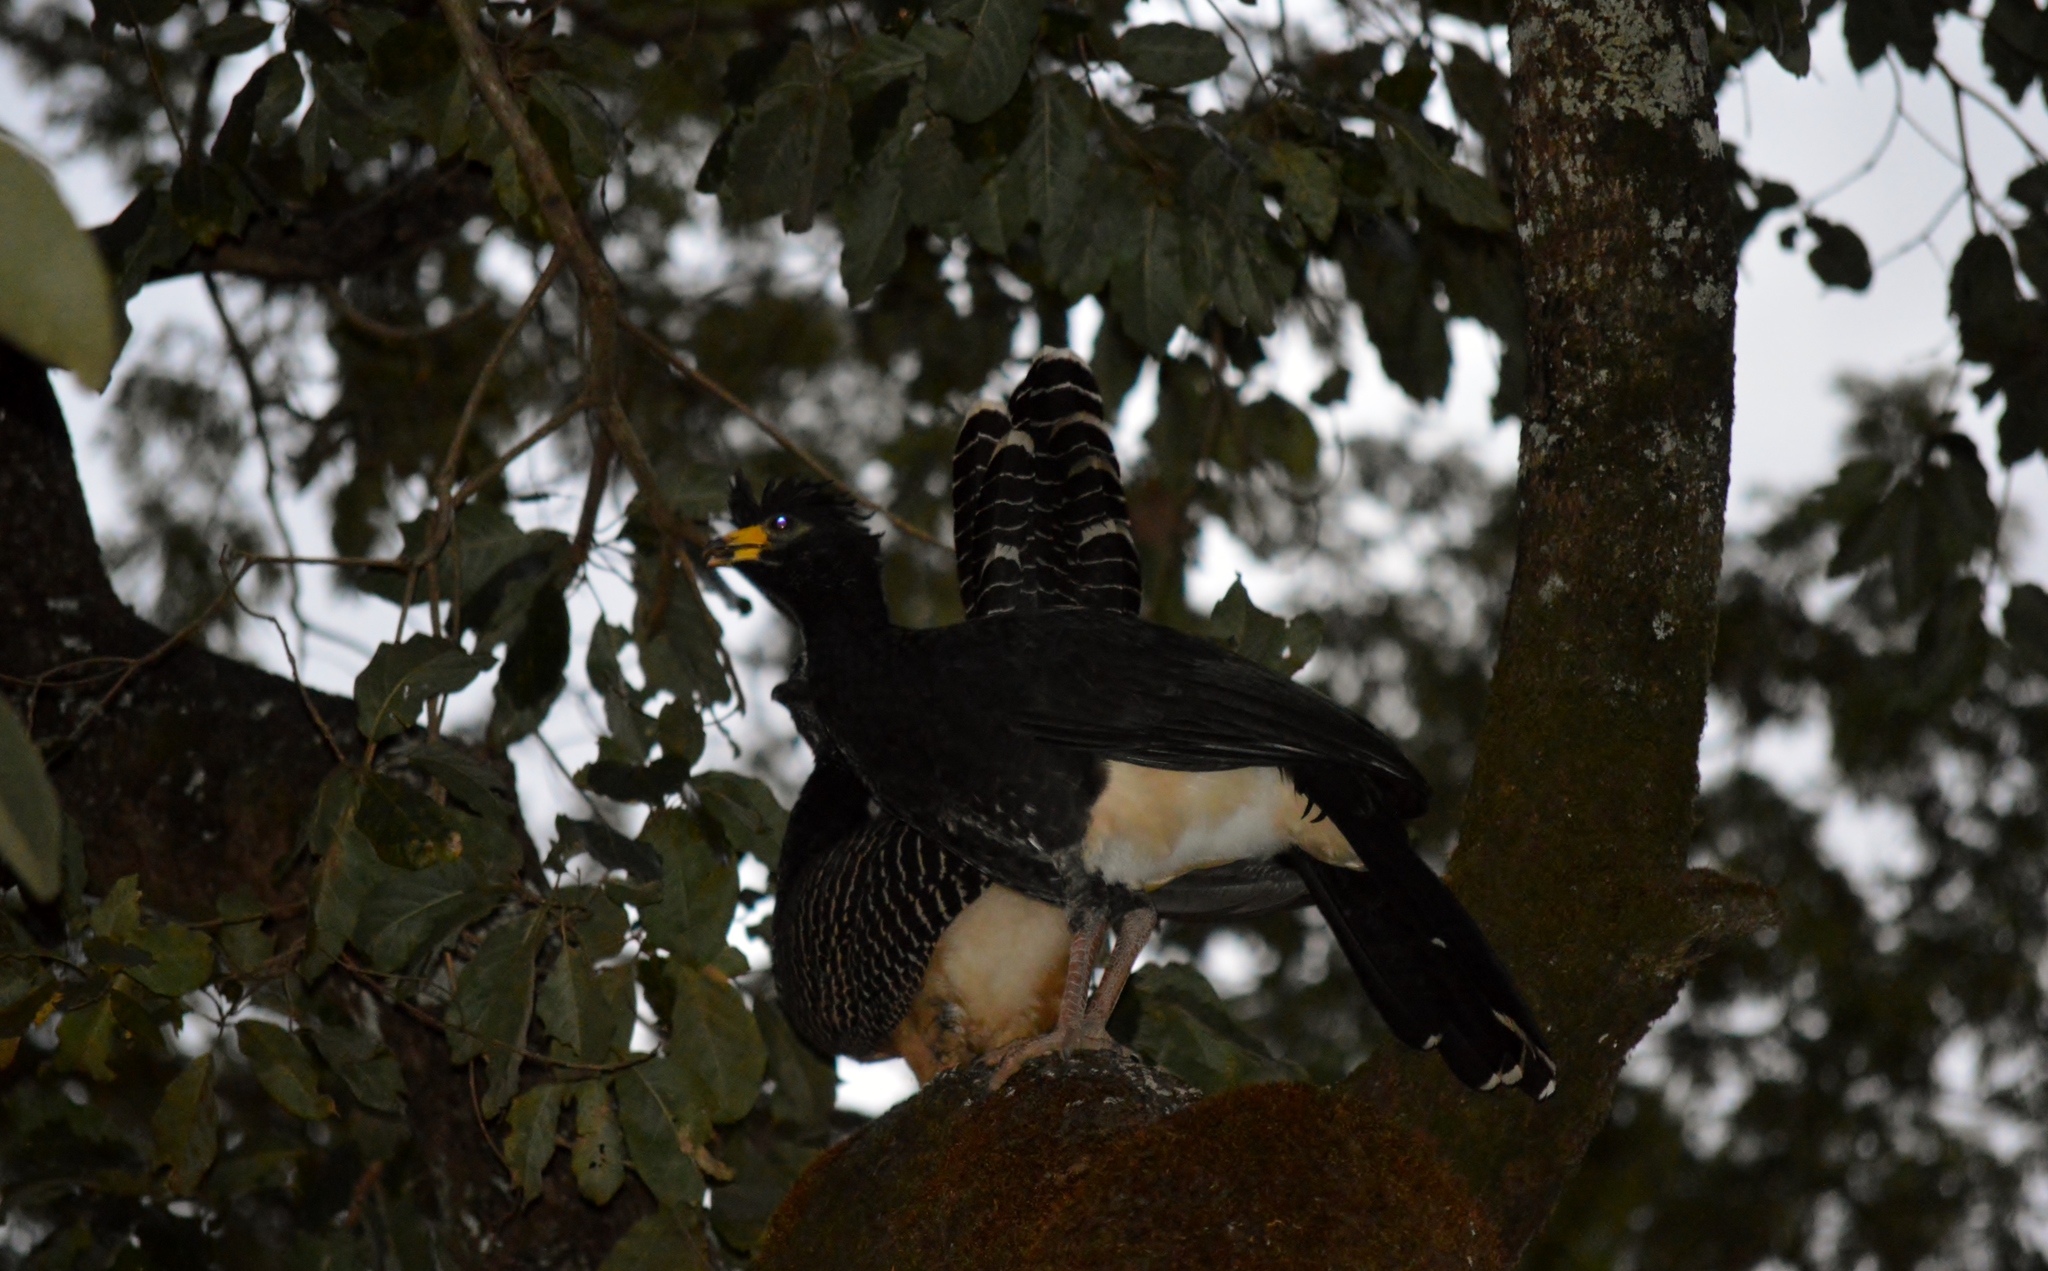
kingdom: Animalia
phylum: Chordata
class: Aves
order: Galliformes
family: Cracidae
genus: Crax
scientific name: Crax fasciolata
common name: Bare-faced curassow
